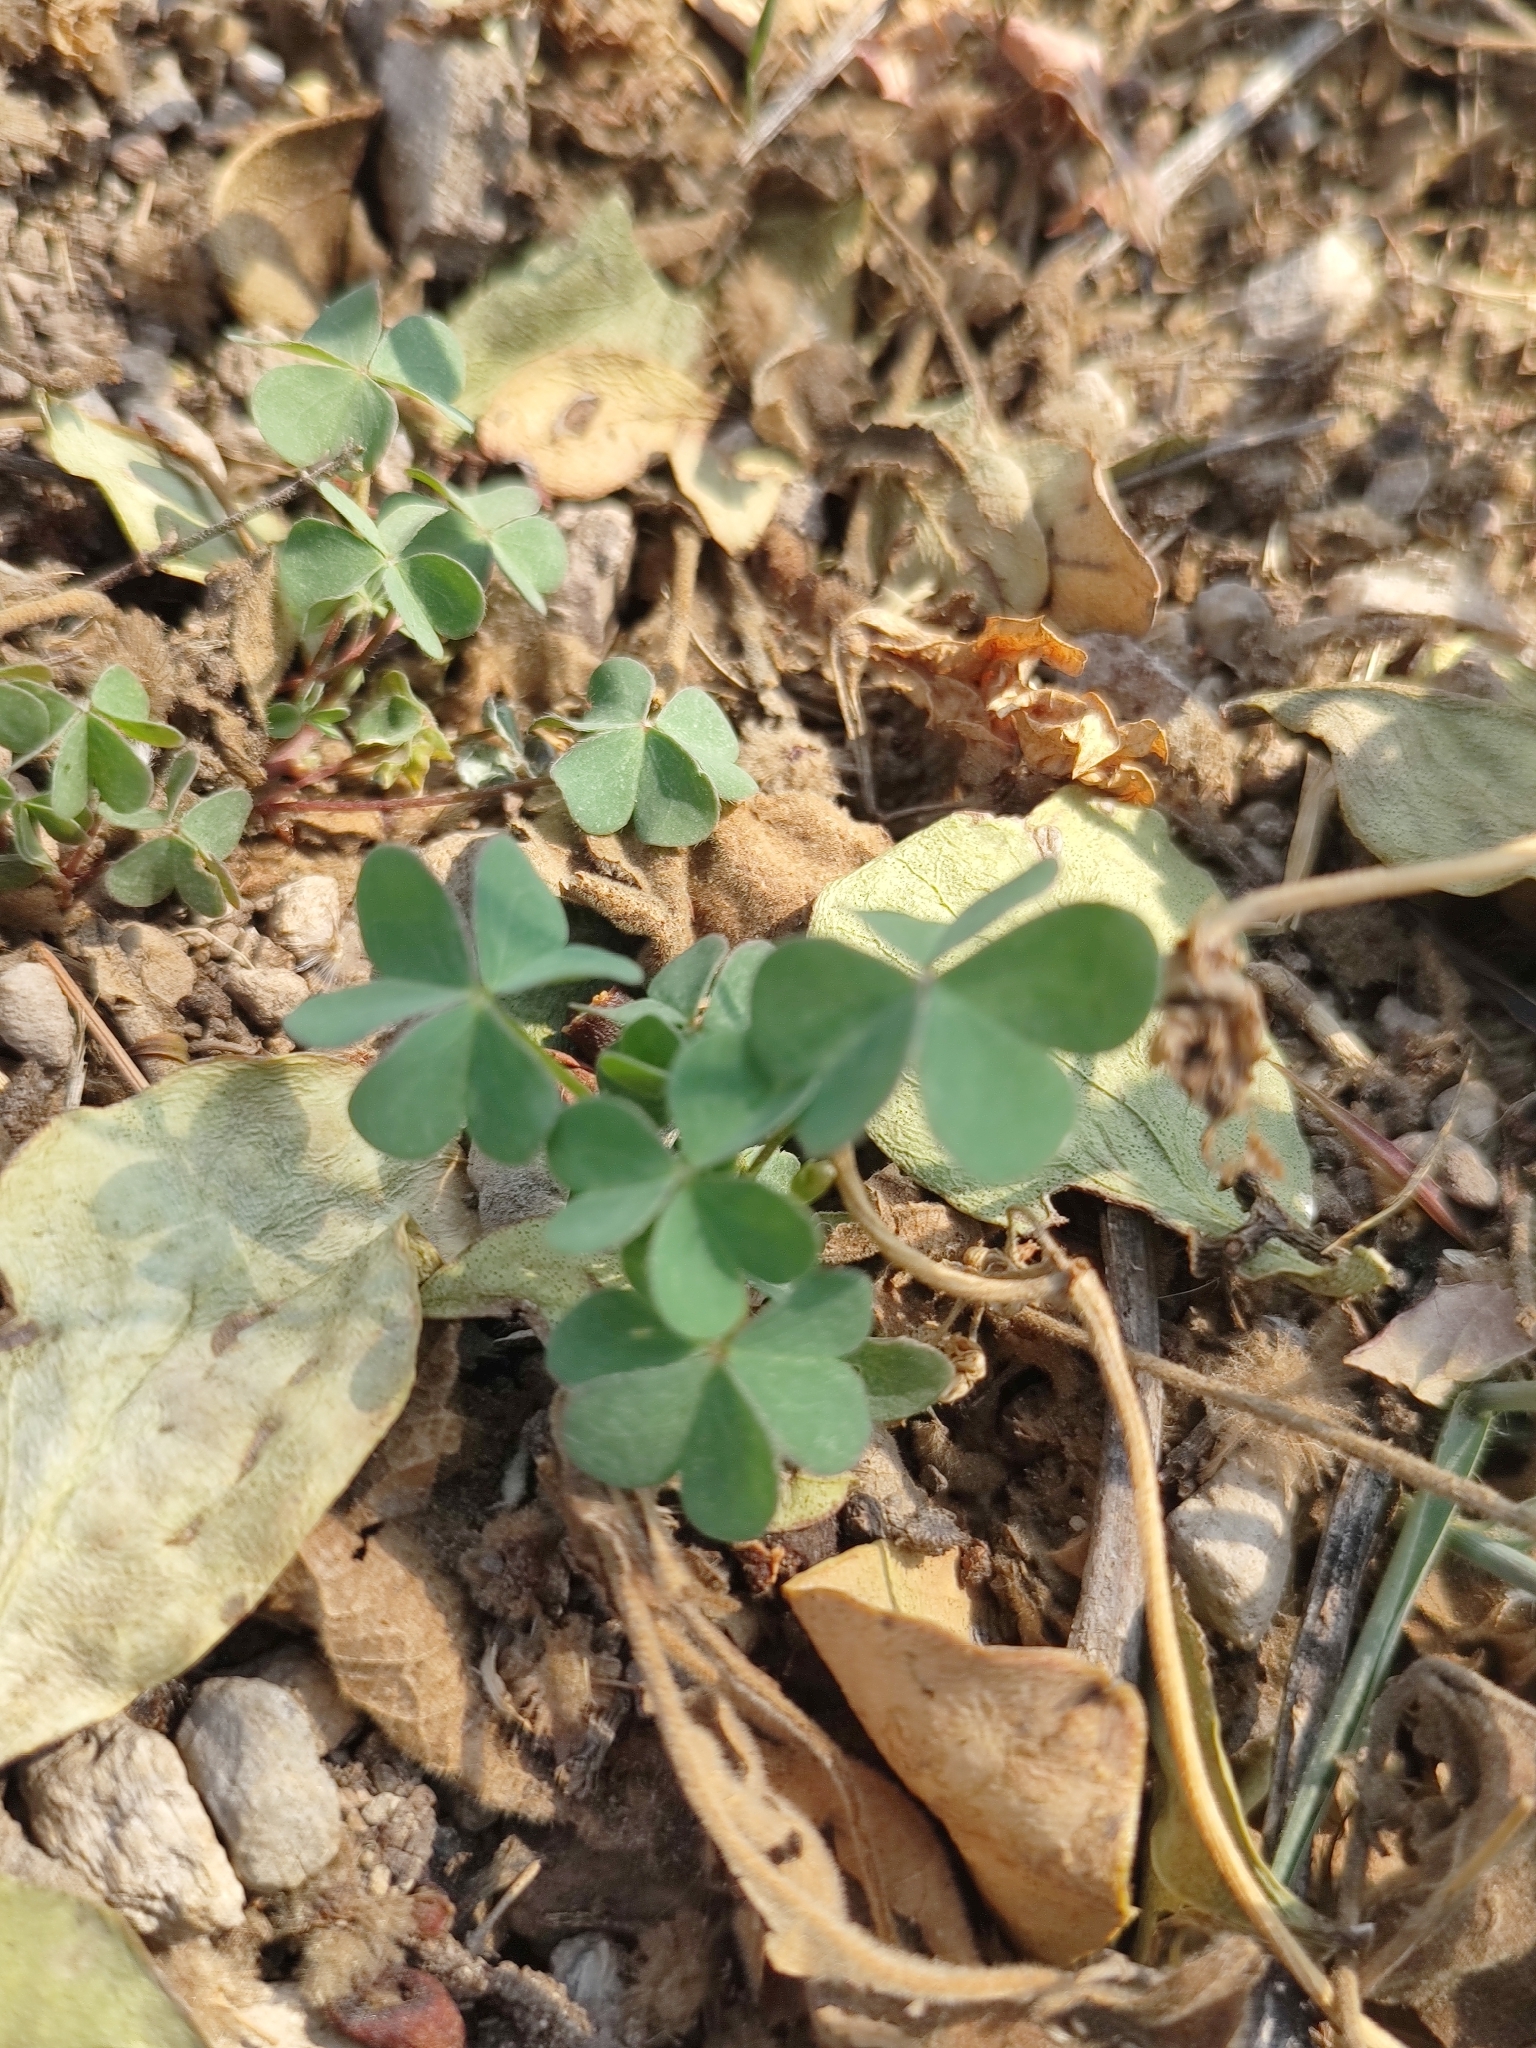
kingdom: Plantae
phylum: Tracheophyta
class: Magnoliopsida
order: Oxalidales
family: Oxalidaceae
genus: Oxalis
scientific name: Oxalis corniculata
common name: Procumbent yellow-sorrel
